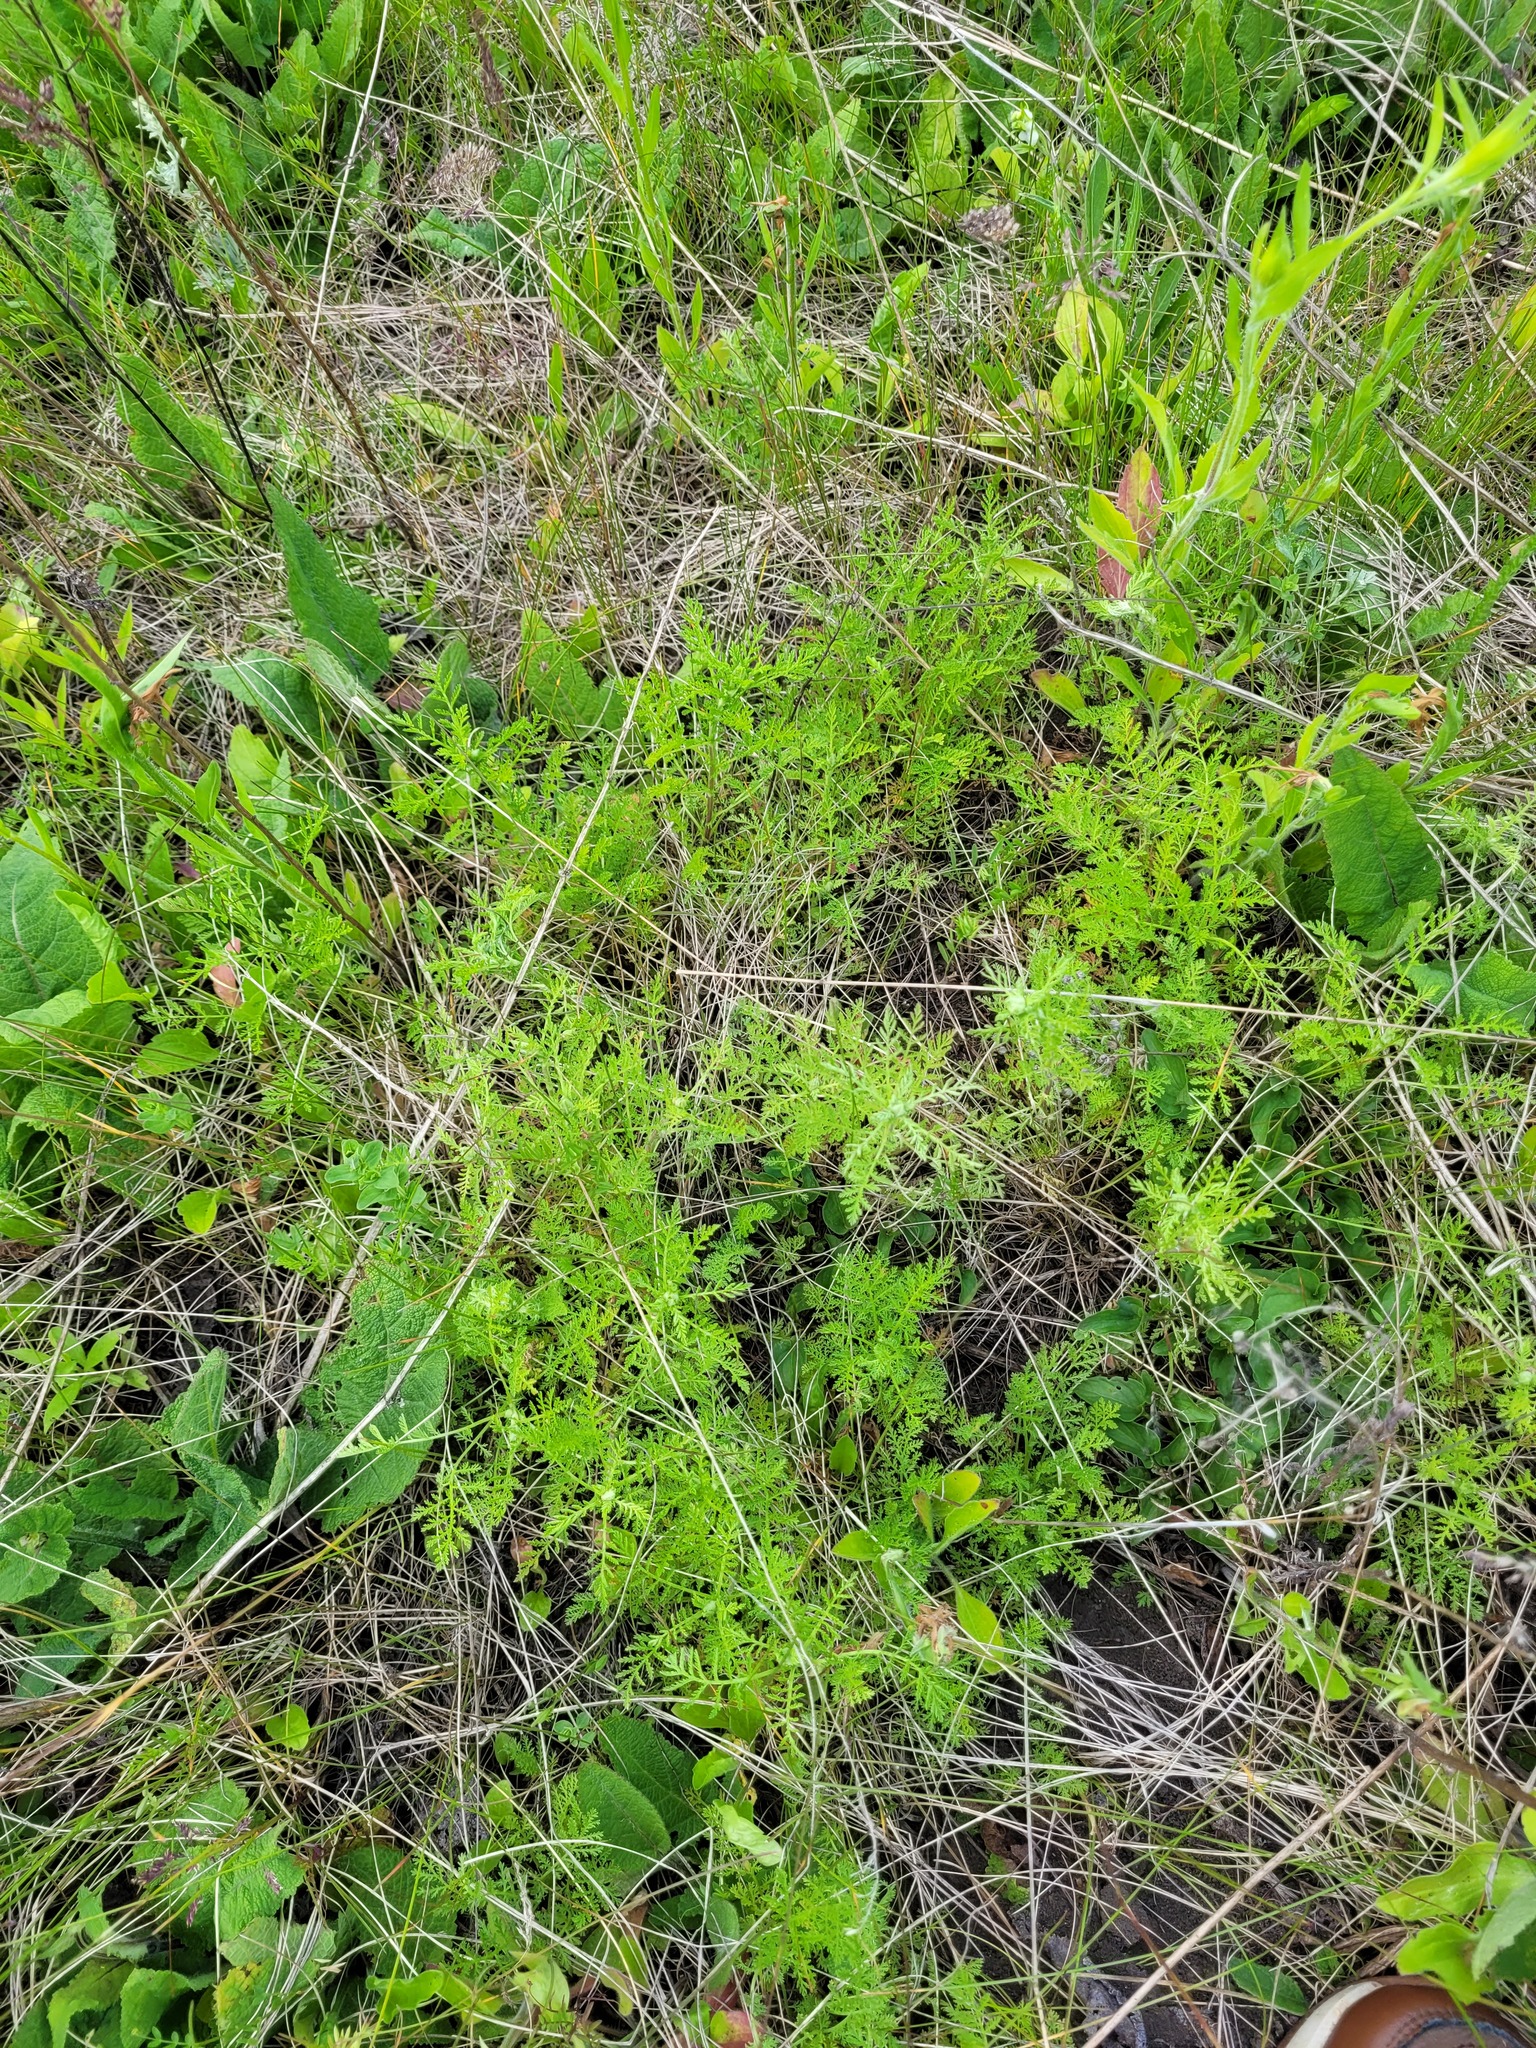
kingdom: Plantae
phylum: Tracheophyta
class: Magnoliopsida
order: Asterales
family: Asteraceae
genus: Achillea
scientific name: Achillea nobilis
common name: Noble yarrow
